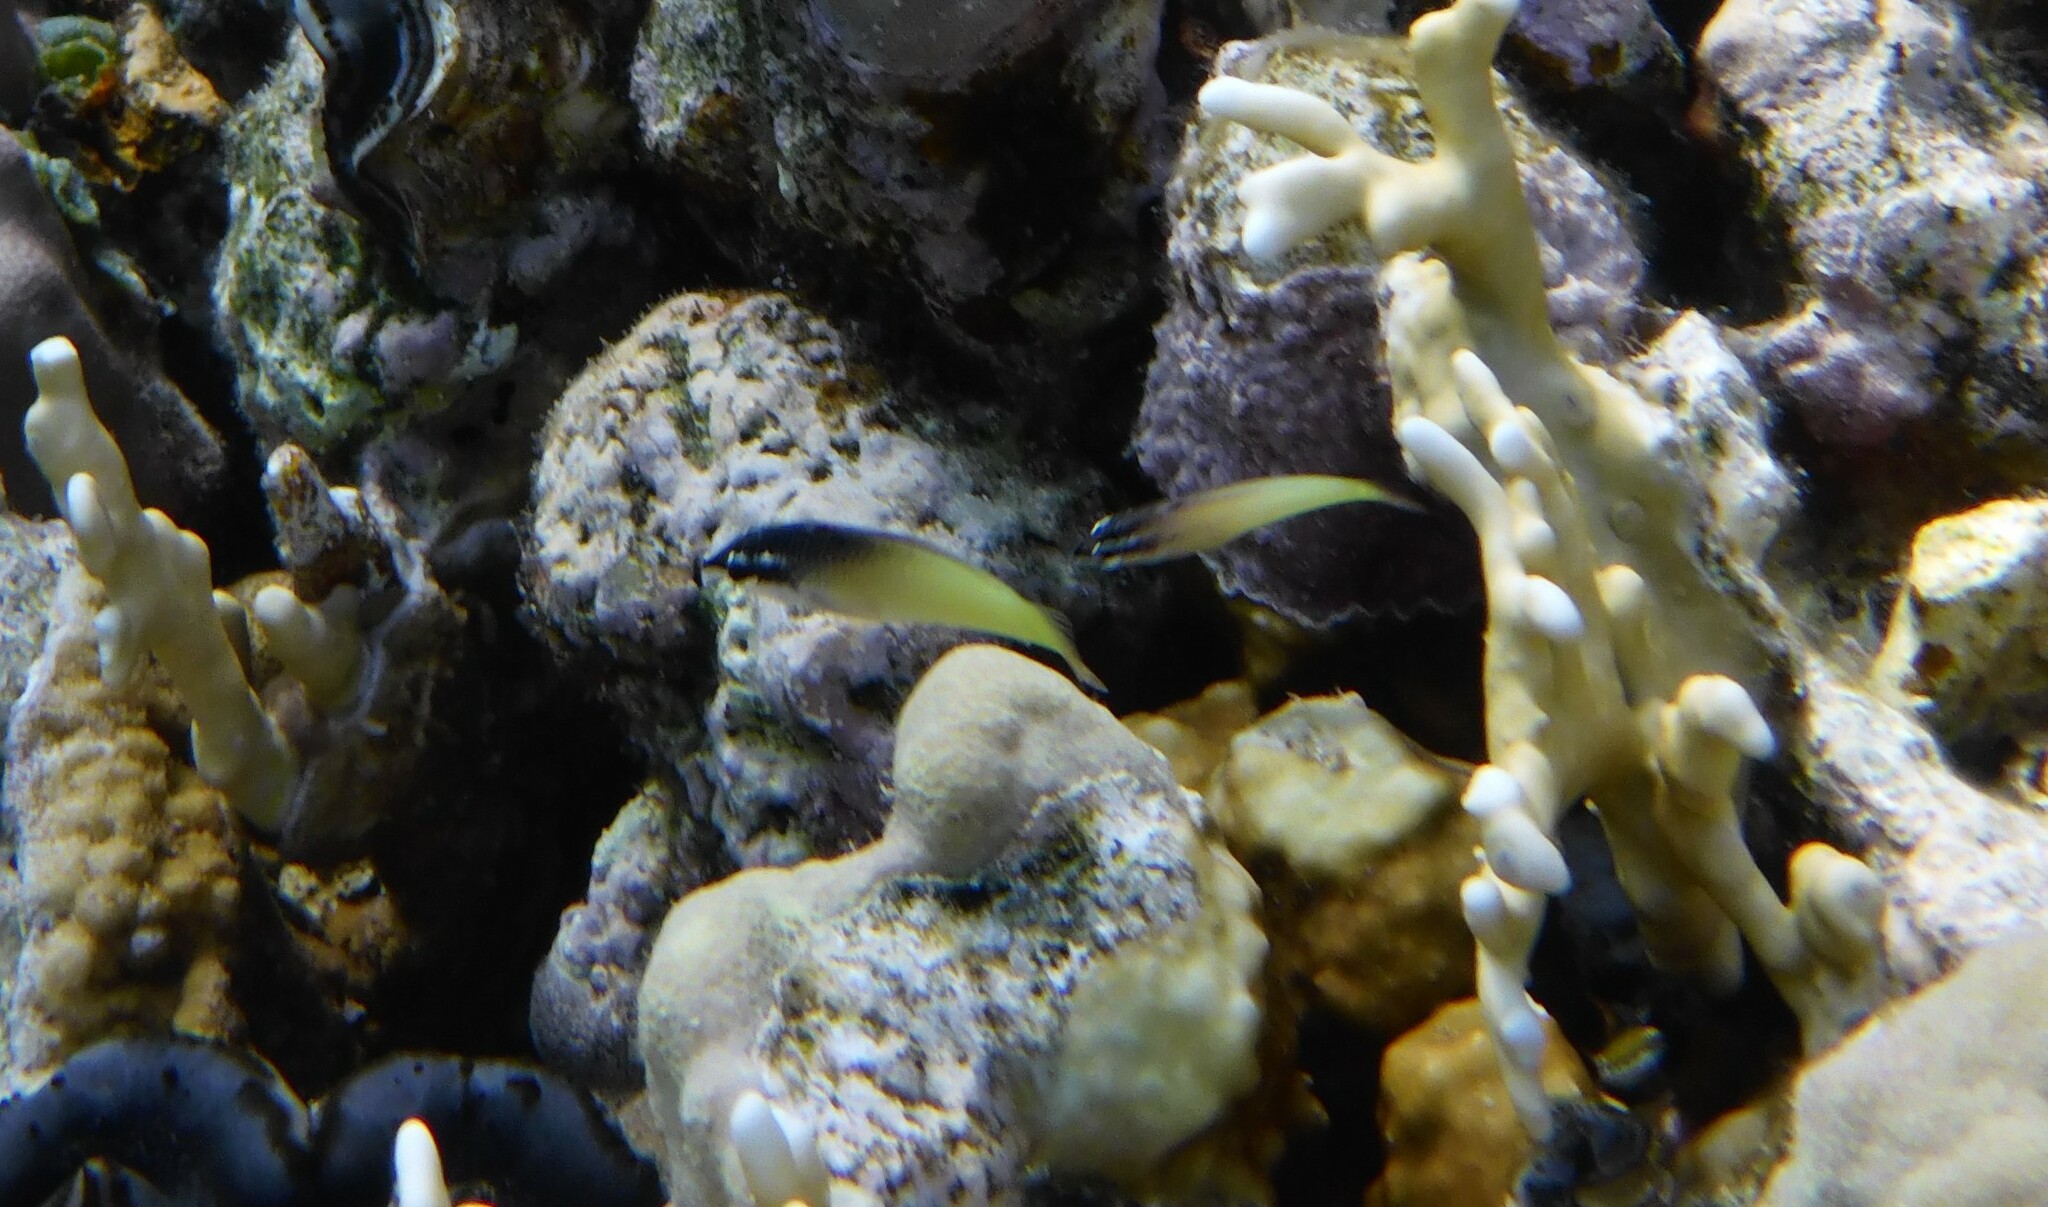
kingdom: Animalia
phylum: Chordata
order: Perciformes
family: Labridae
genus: Gomphosus
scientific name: Gomphosus klunzingeri
